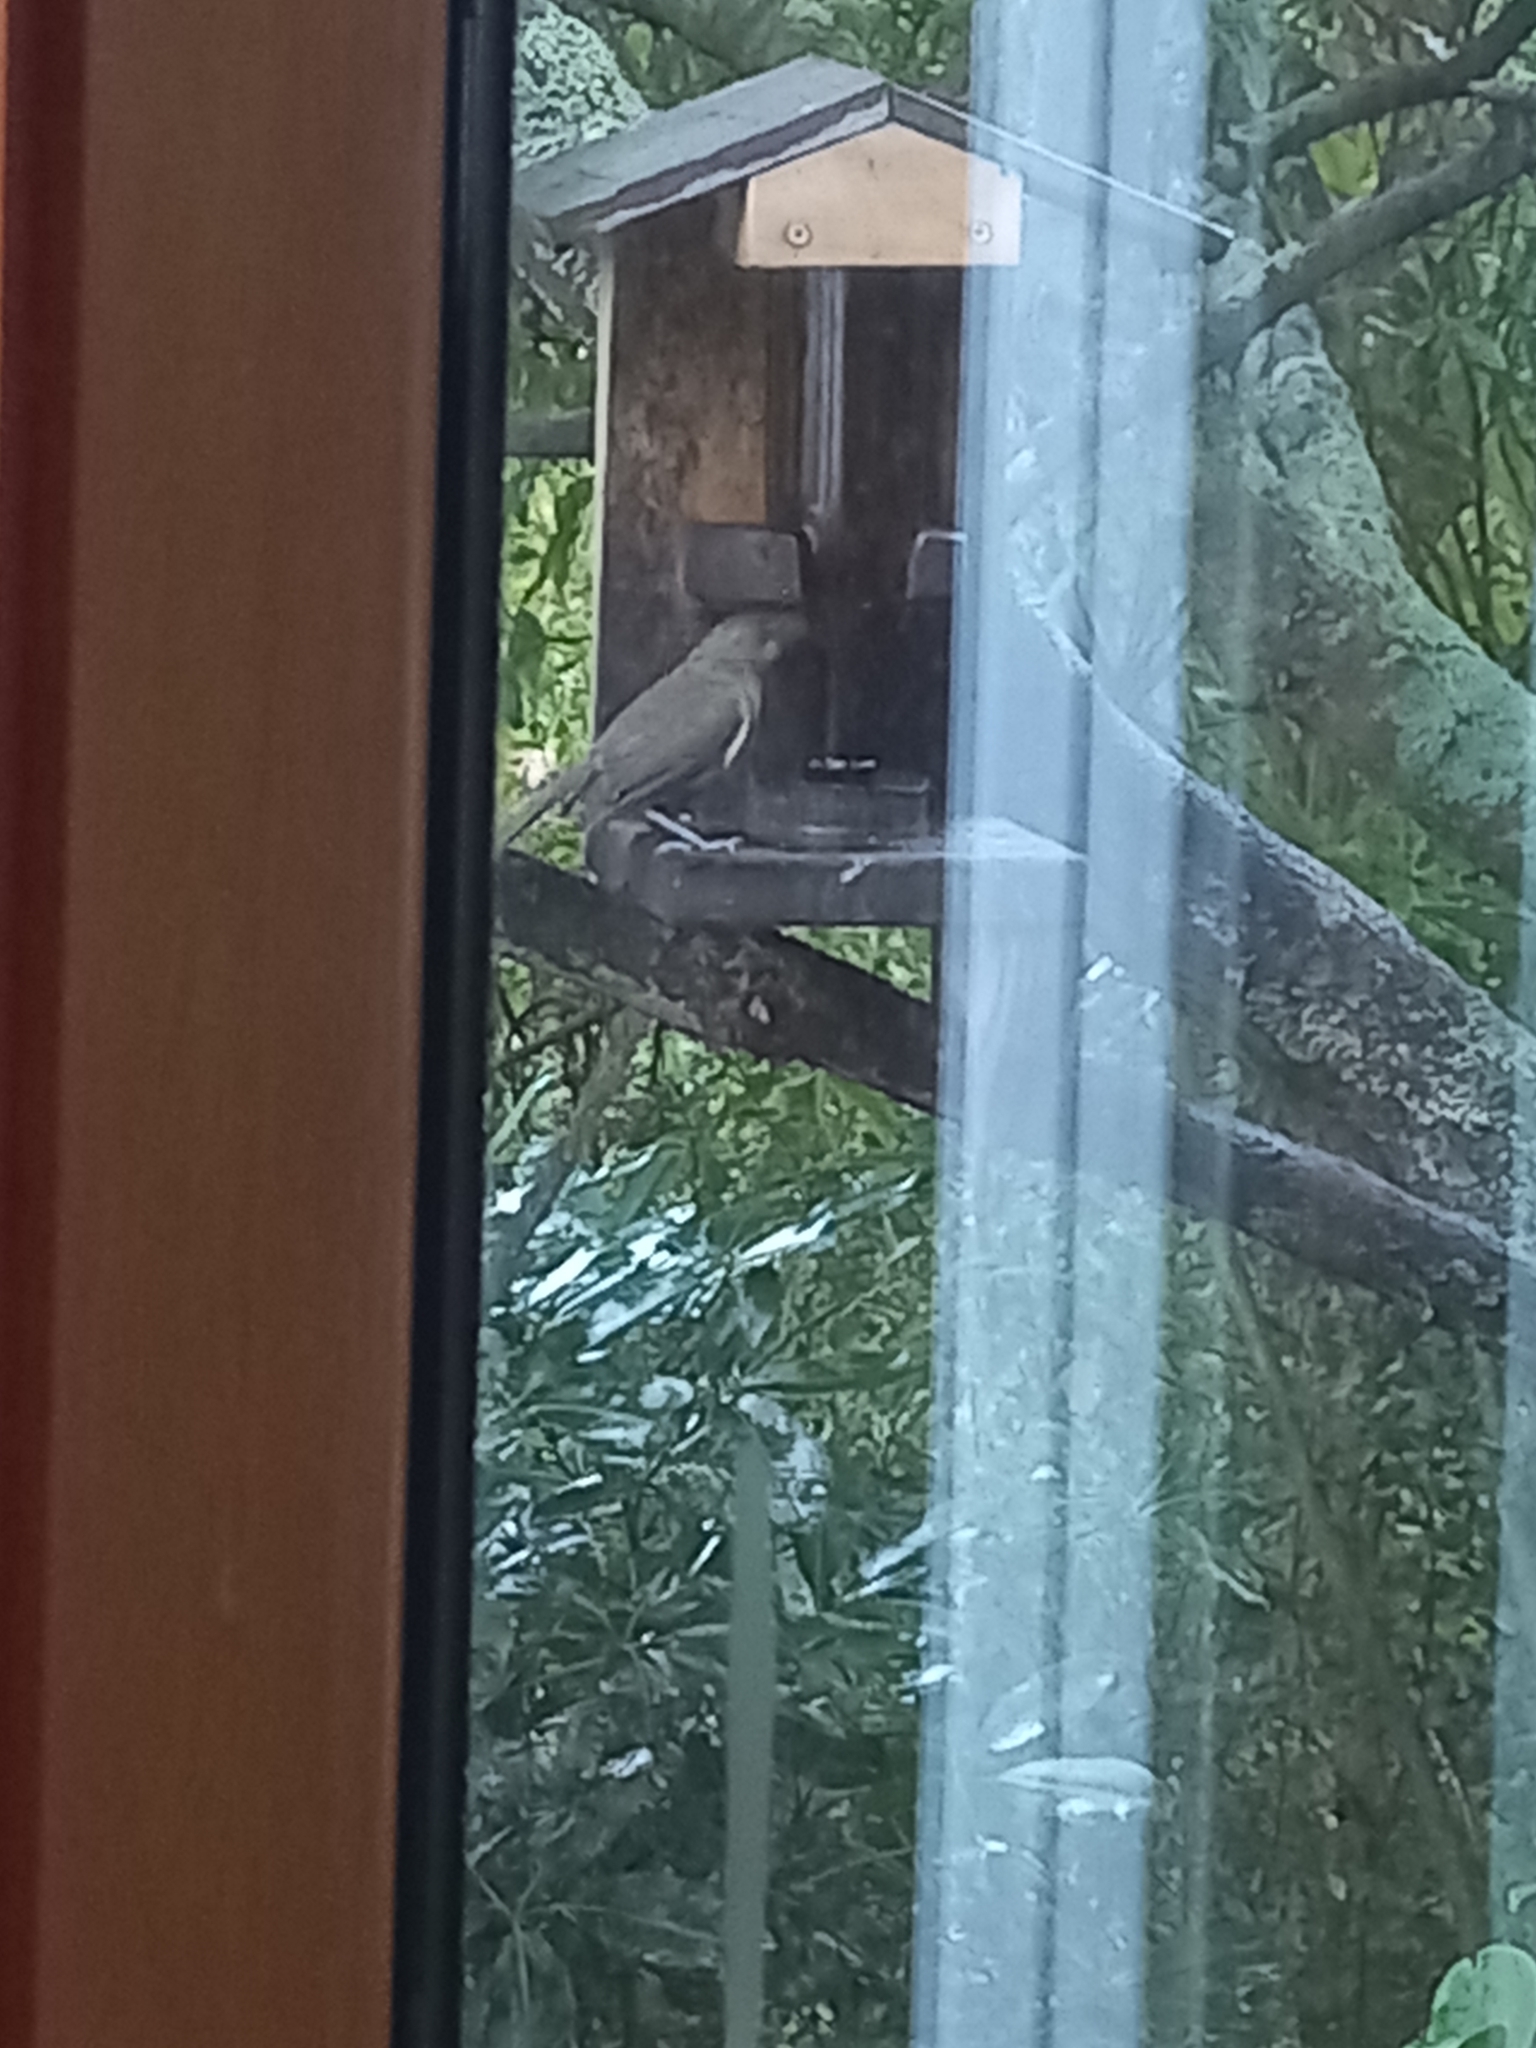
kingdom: Animalia
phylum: Chordata
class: Aves
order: Passeriformes
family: Meliphagidae
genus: Anthornis
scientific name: Anthornis melanura
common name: New zealand bellbird
